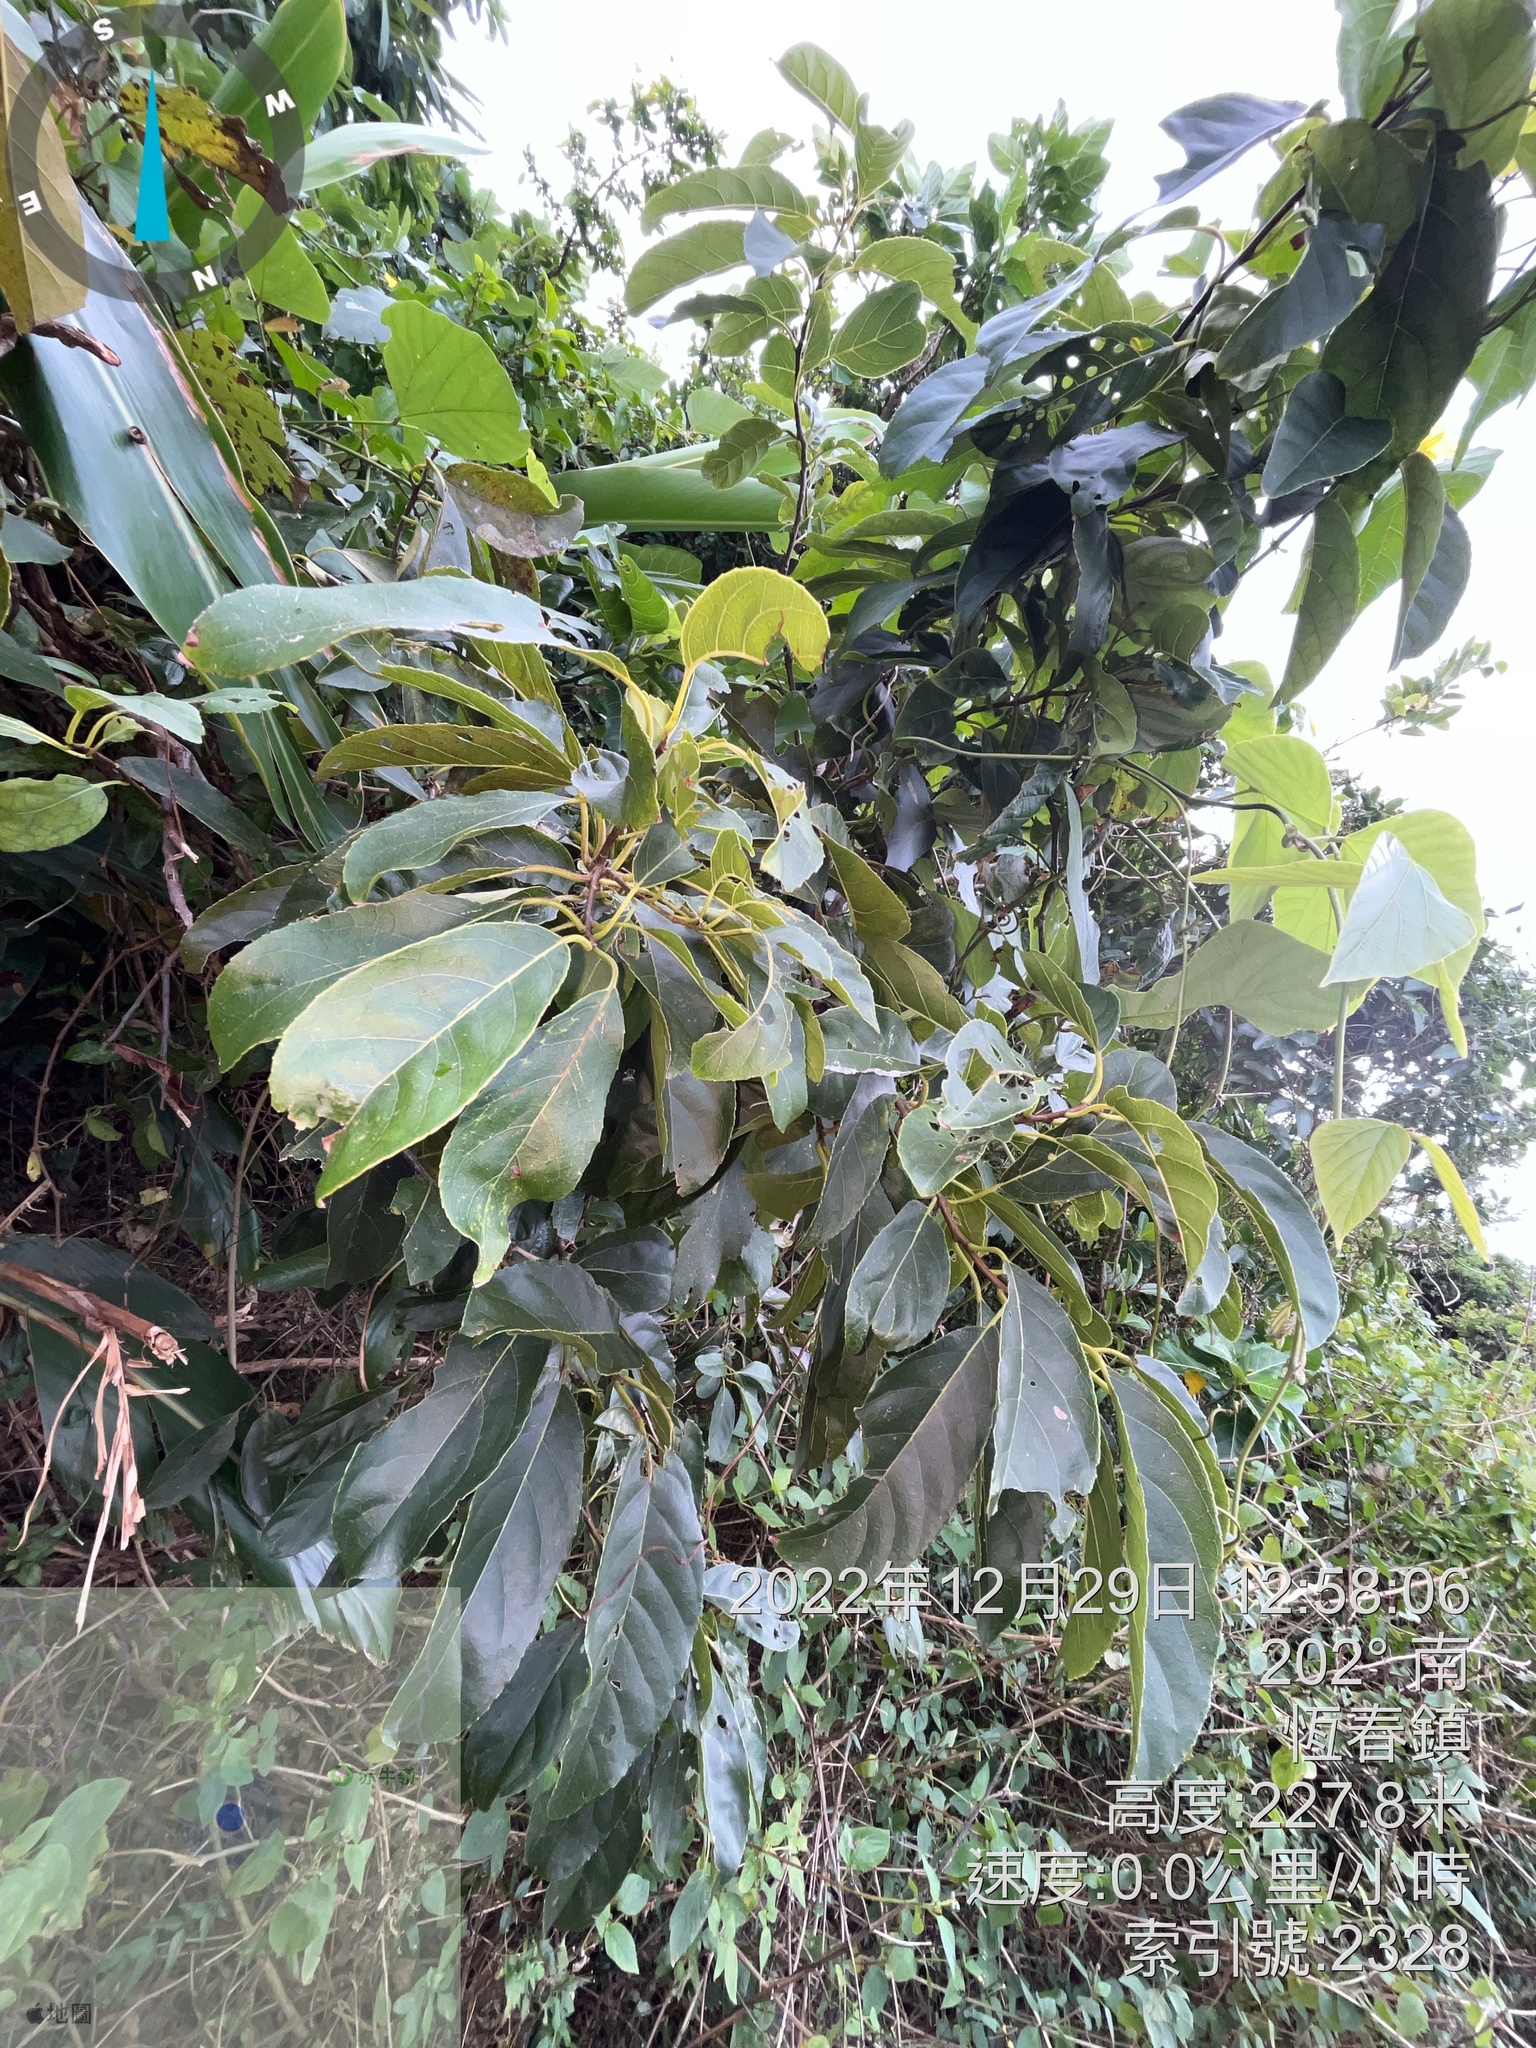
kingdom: Plantae
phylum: Tracheophyta
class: Magnoliopsida
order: Boraginales
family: Ehretiaceae
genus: Ehretia
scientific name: Ehretia acuminata
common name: Kodo wood
